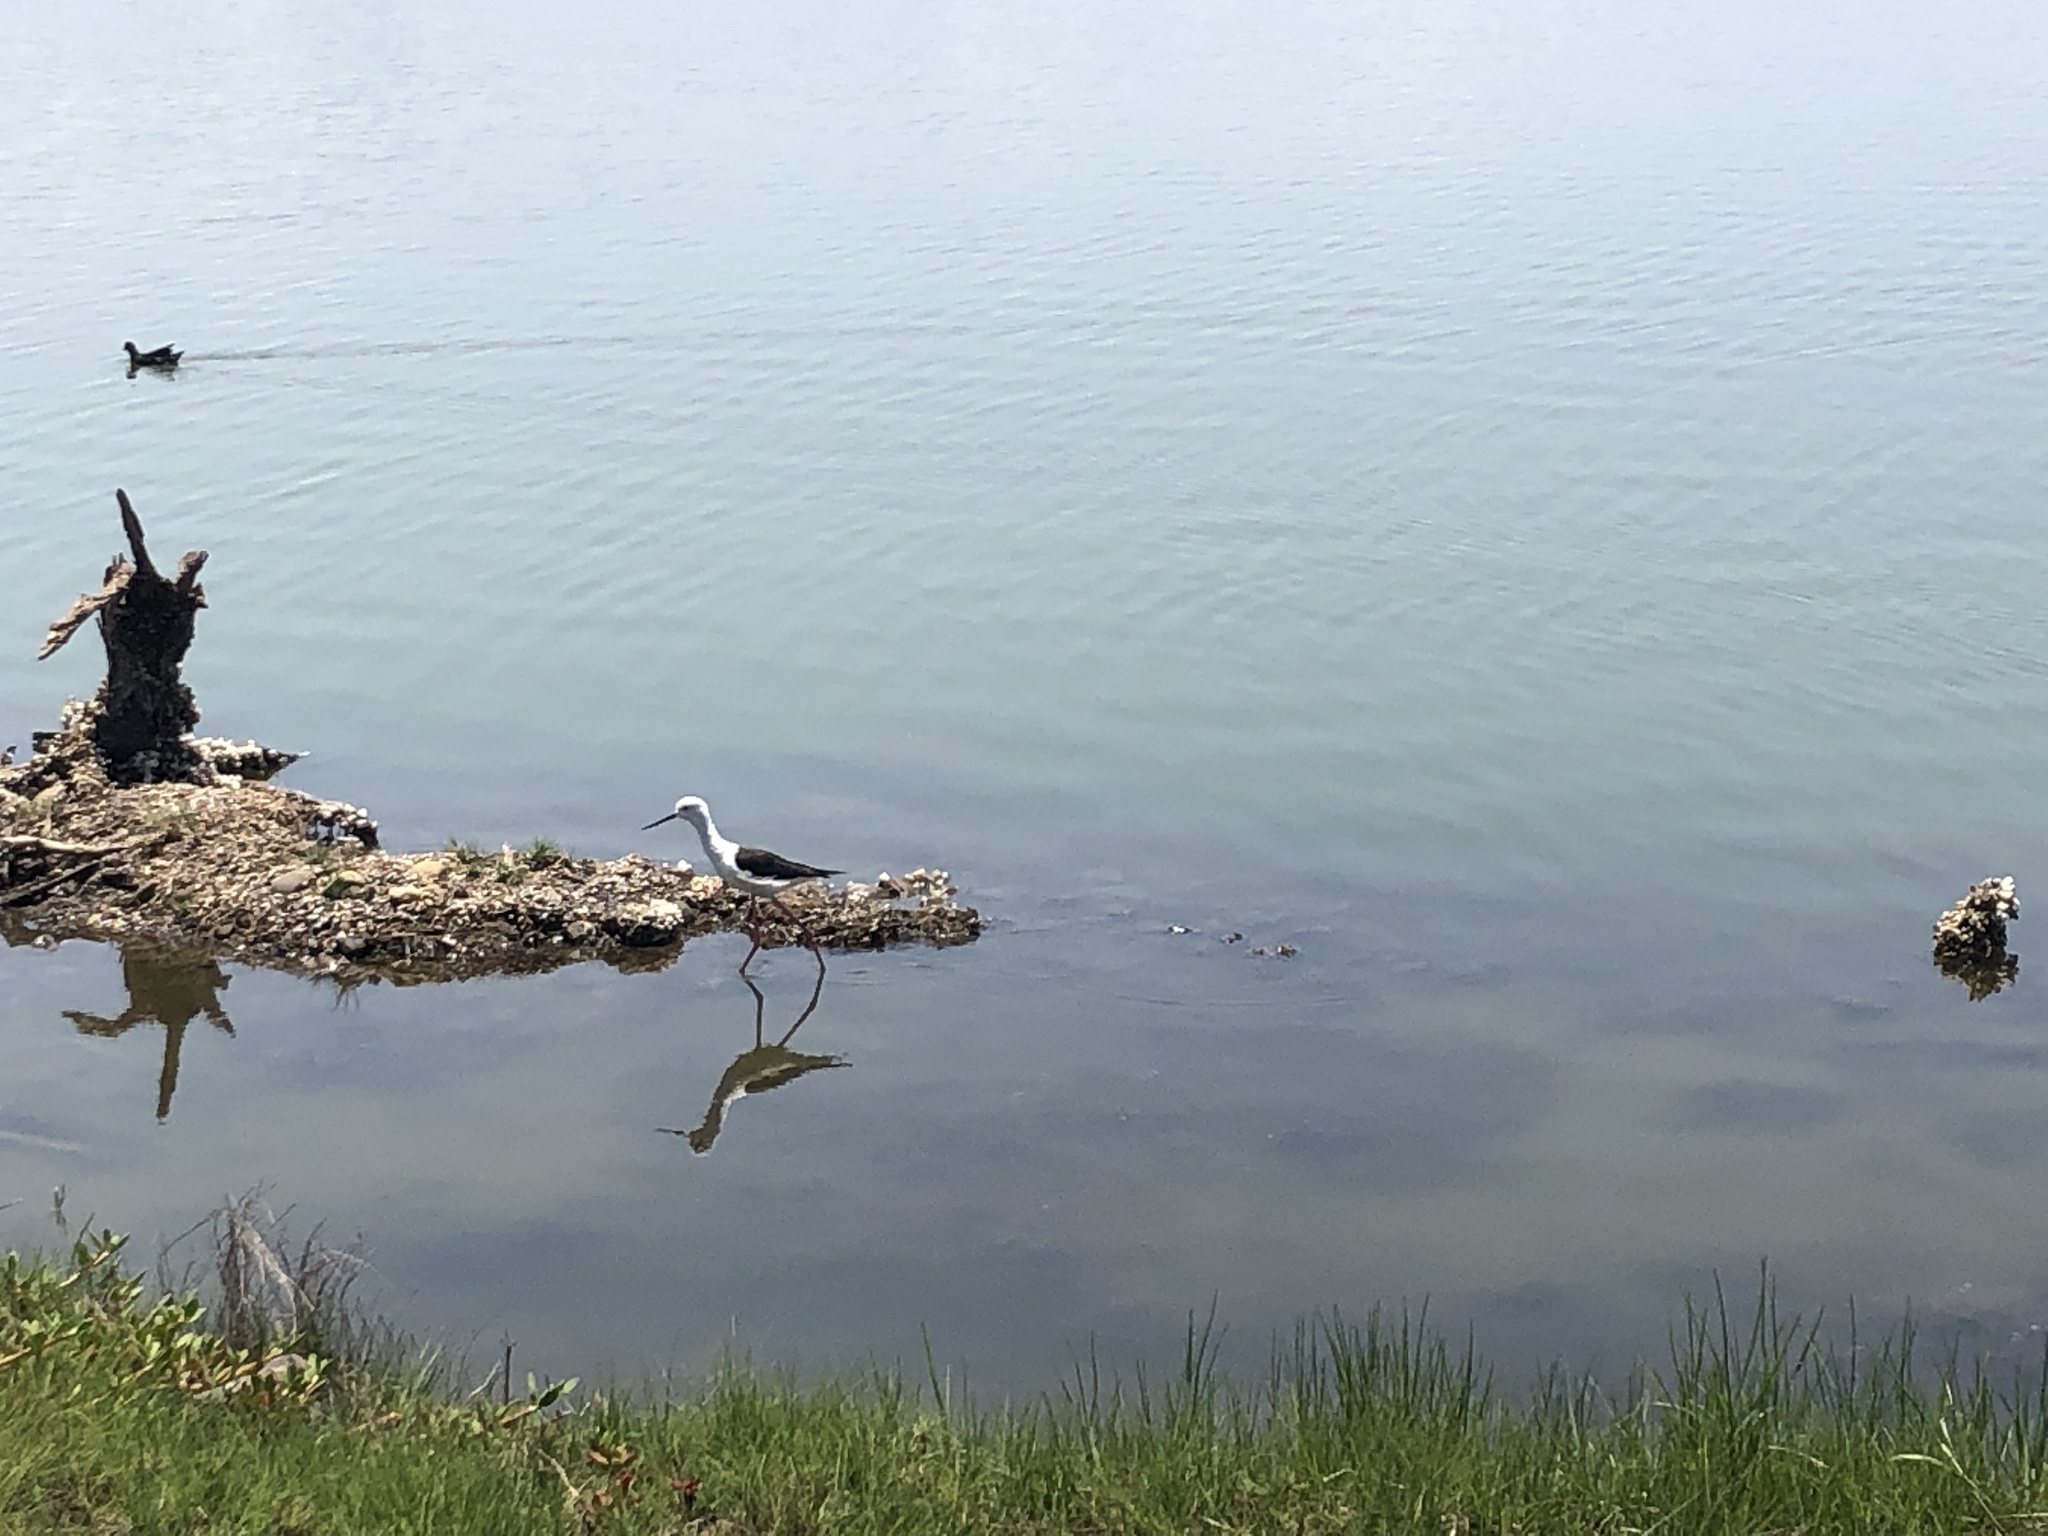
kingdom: Animalia
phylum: Chordata
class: Aves
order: Charadriiformes
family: Recurvirostridae
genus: Himantopus
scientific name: Himantopus himantopus
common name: Black-winged stilt
